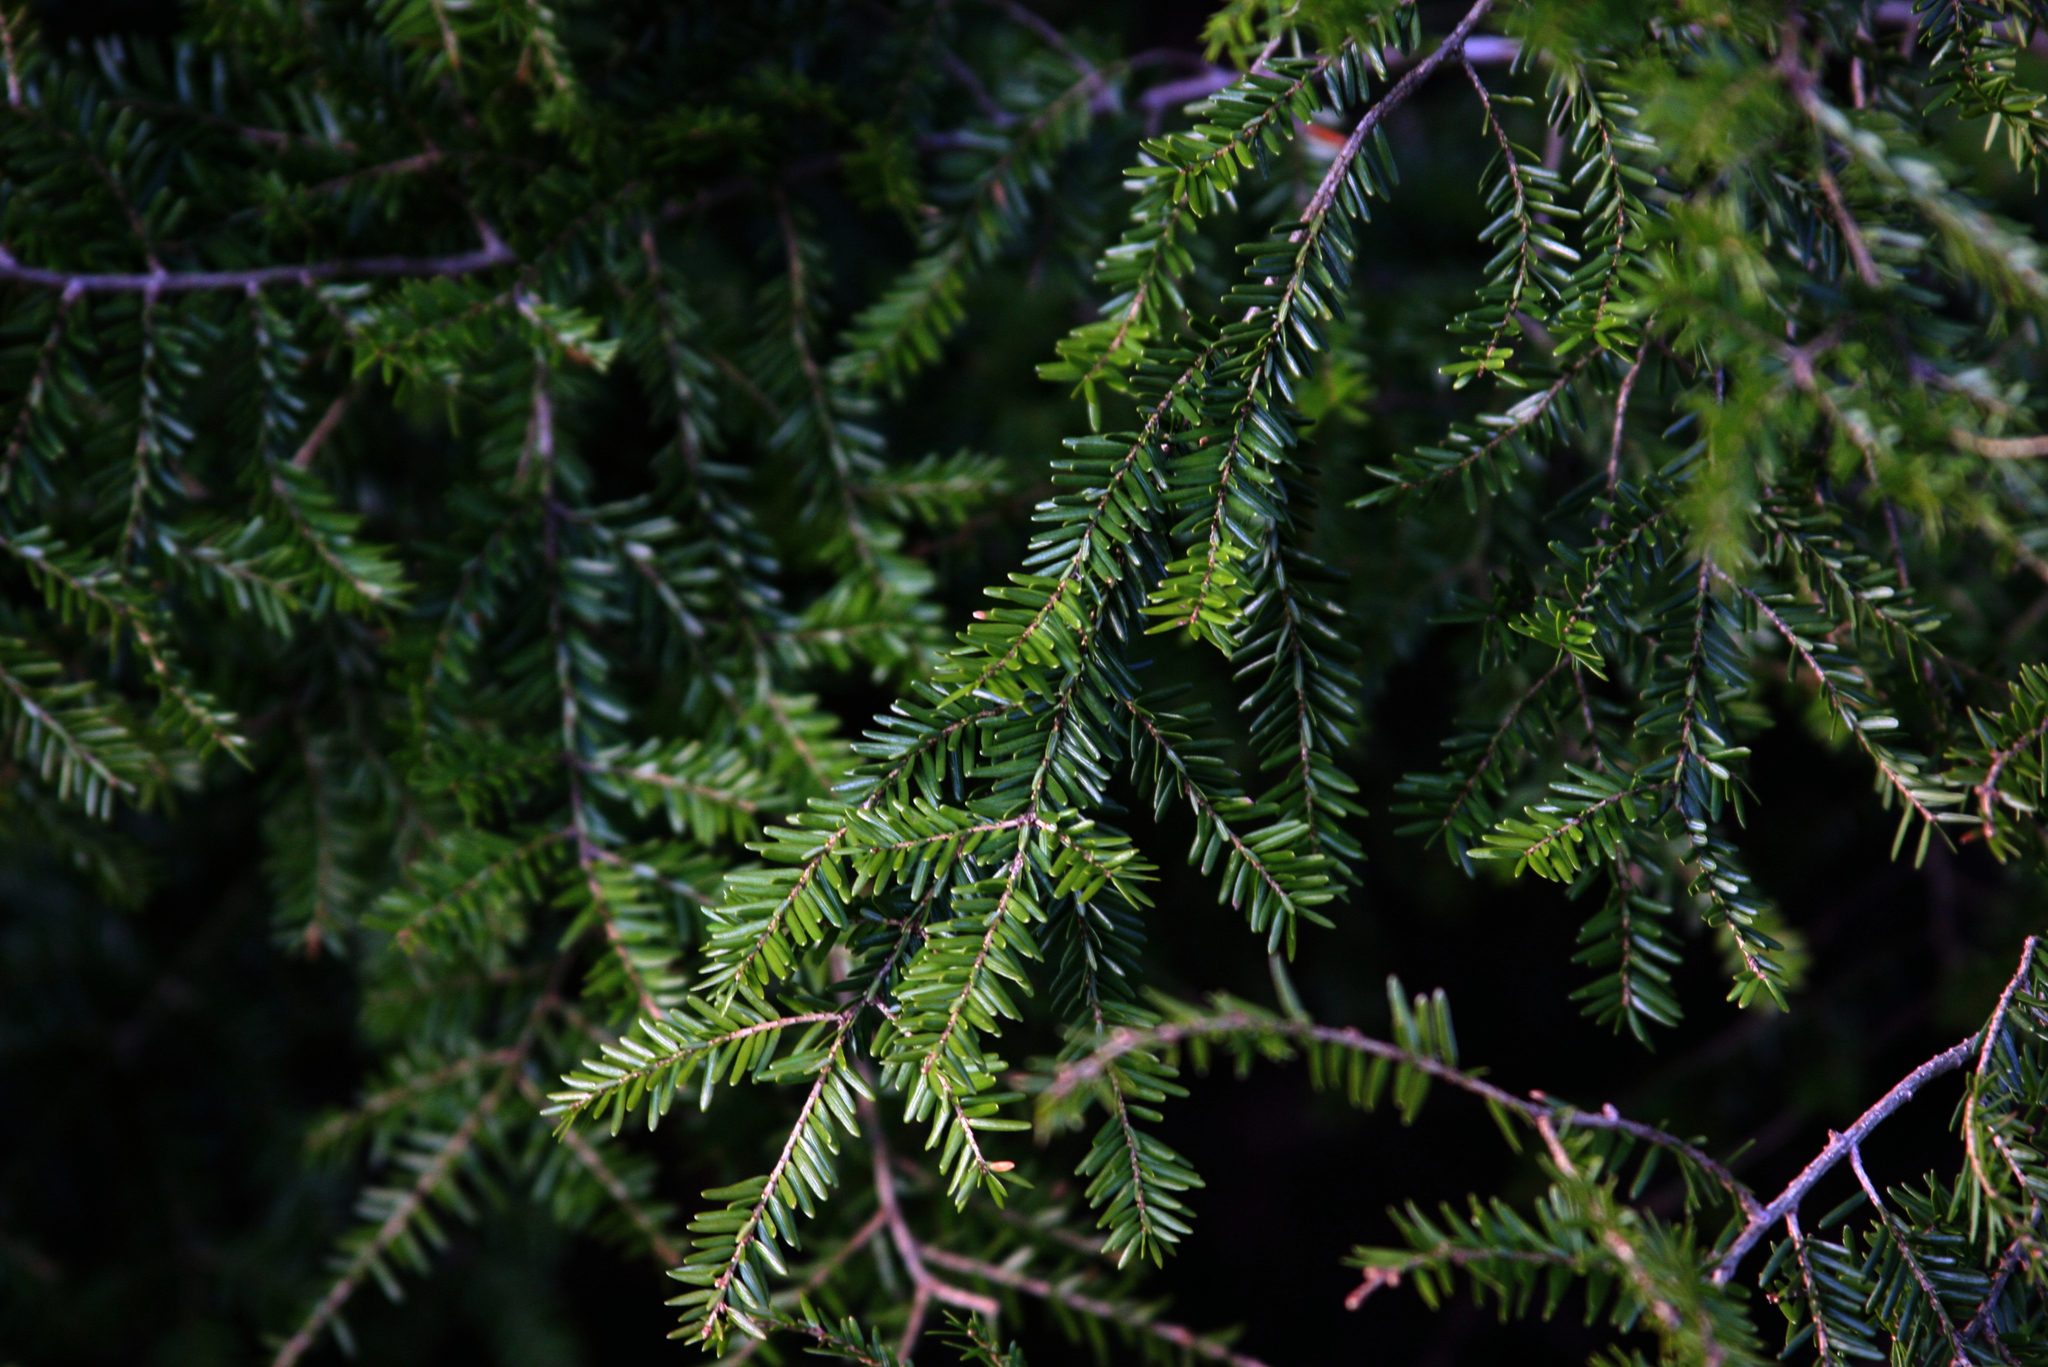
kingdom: Plantae
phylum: Tracheophyta
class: Pinopsida
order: Pinales
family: Pinaceae
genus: Tsuga
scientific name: Tsuga canadensis
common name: Eastern hemlock
